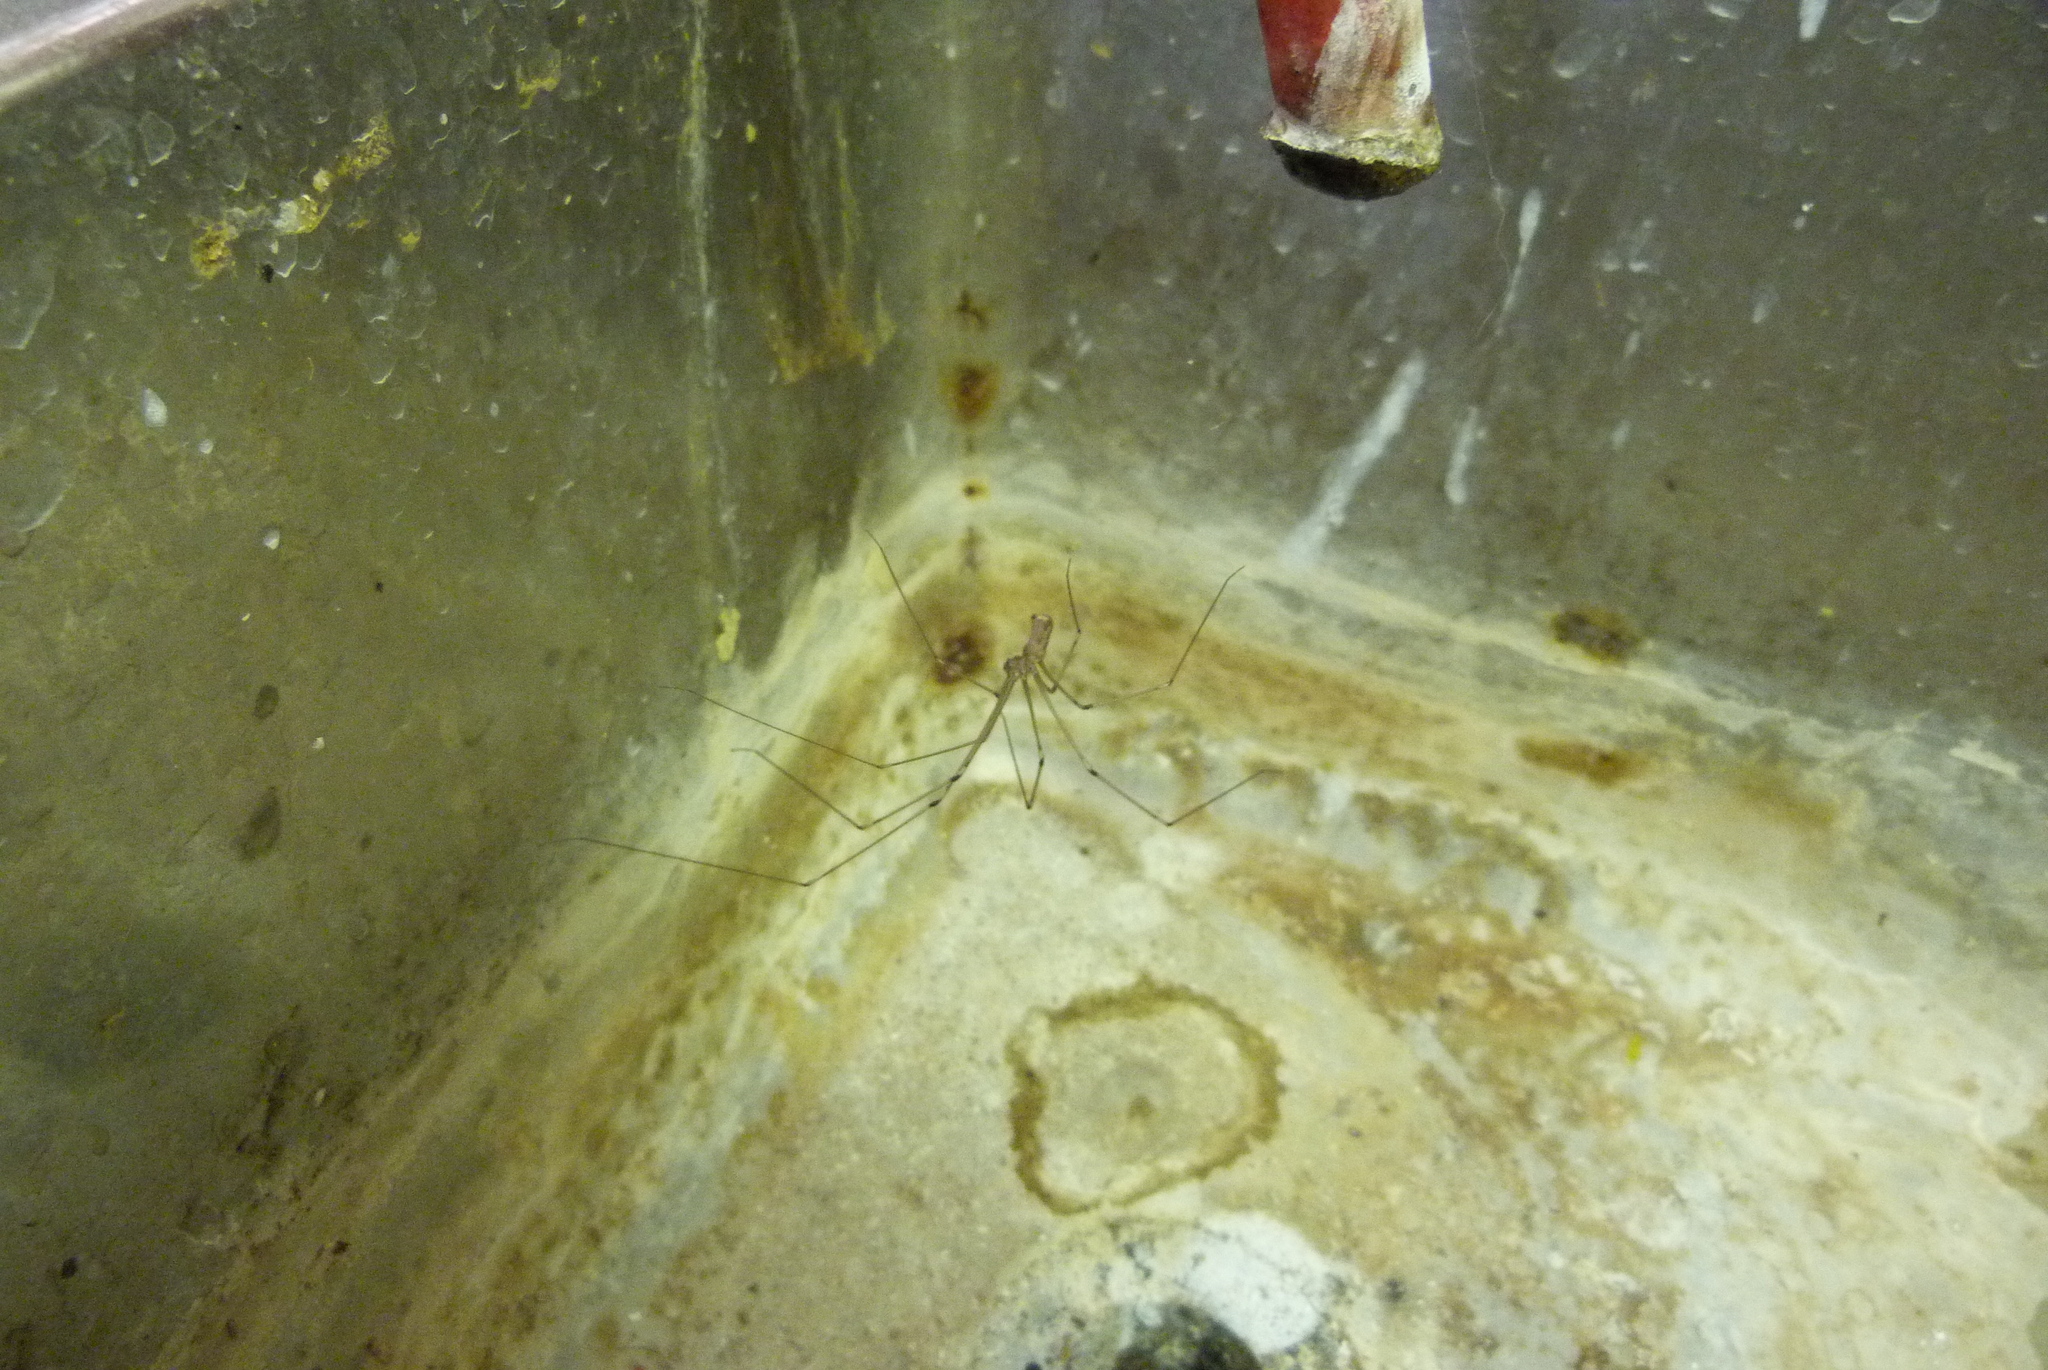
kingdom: Animalia
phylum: Arthropoda
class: Arachnida
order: Araneae
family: Pholcidae
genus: Pholcus
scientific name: Pholcus phalangioides
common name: Longbodied cellar spider
